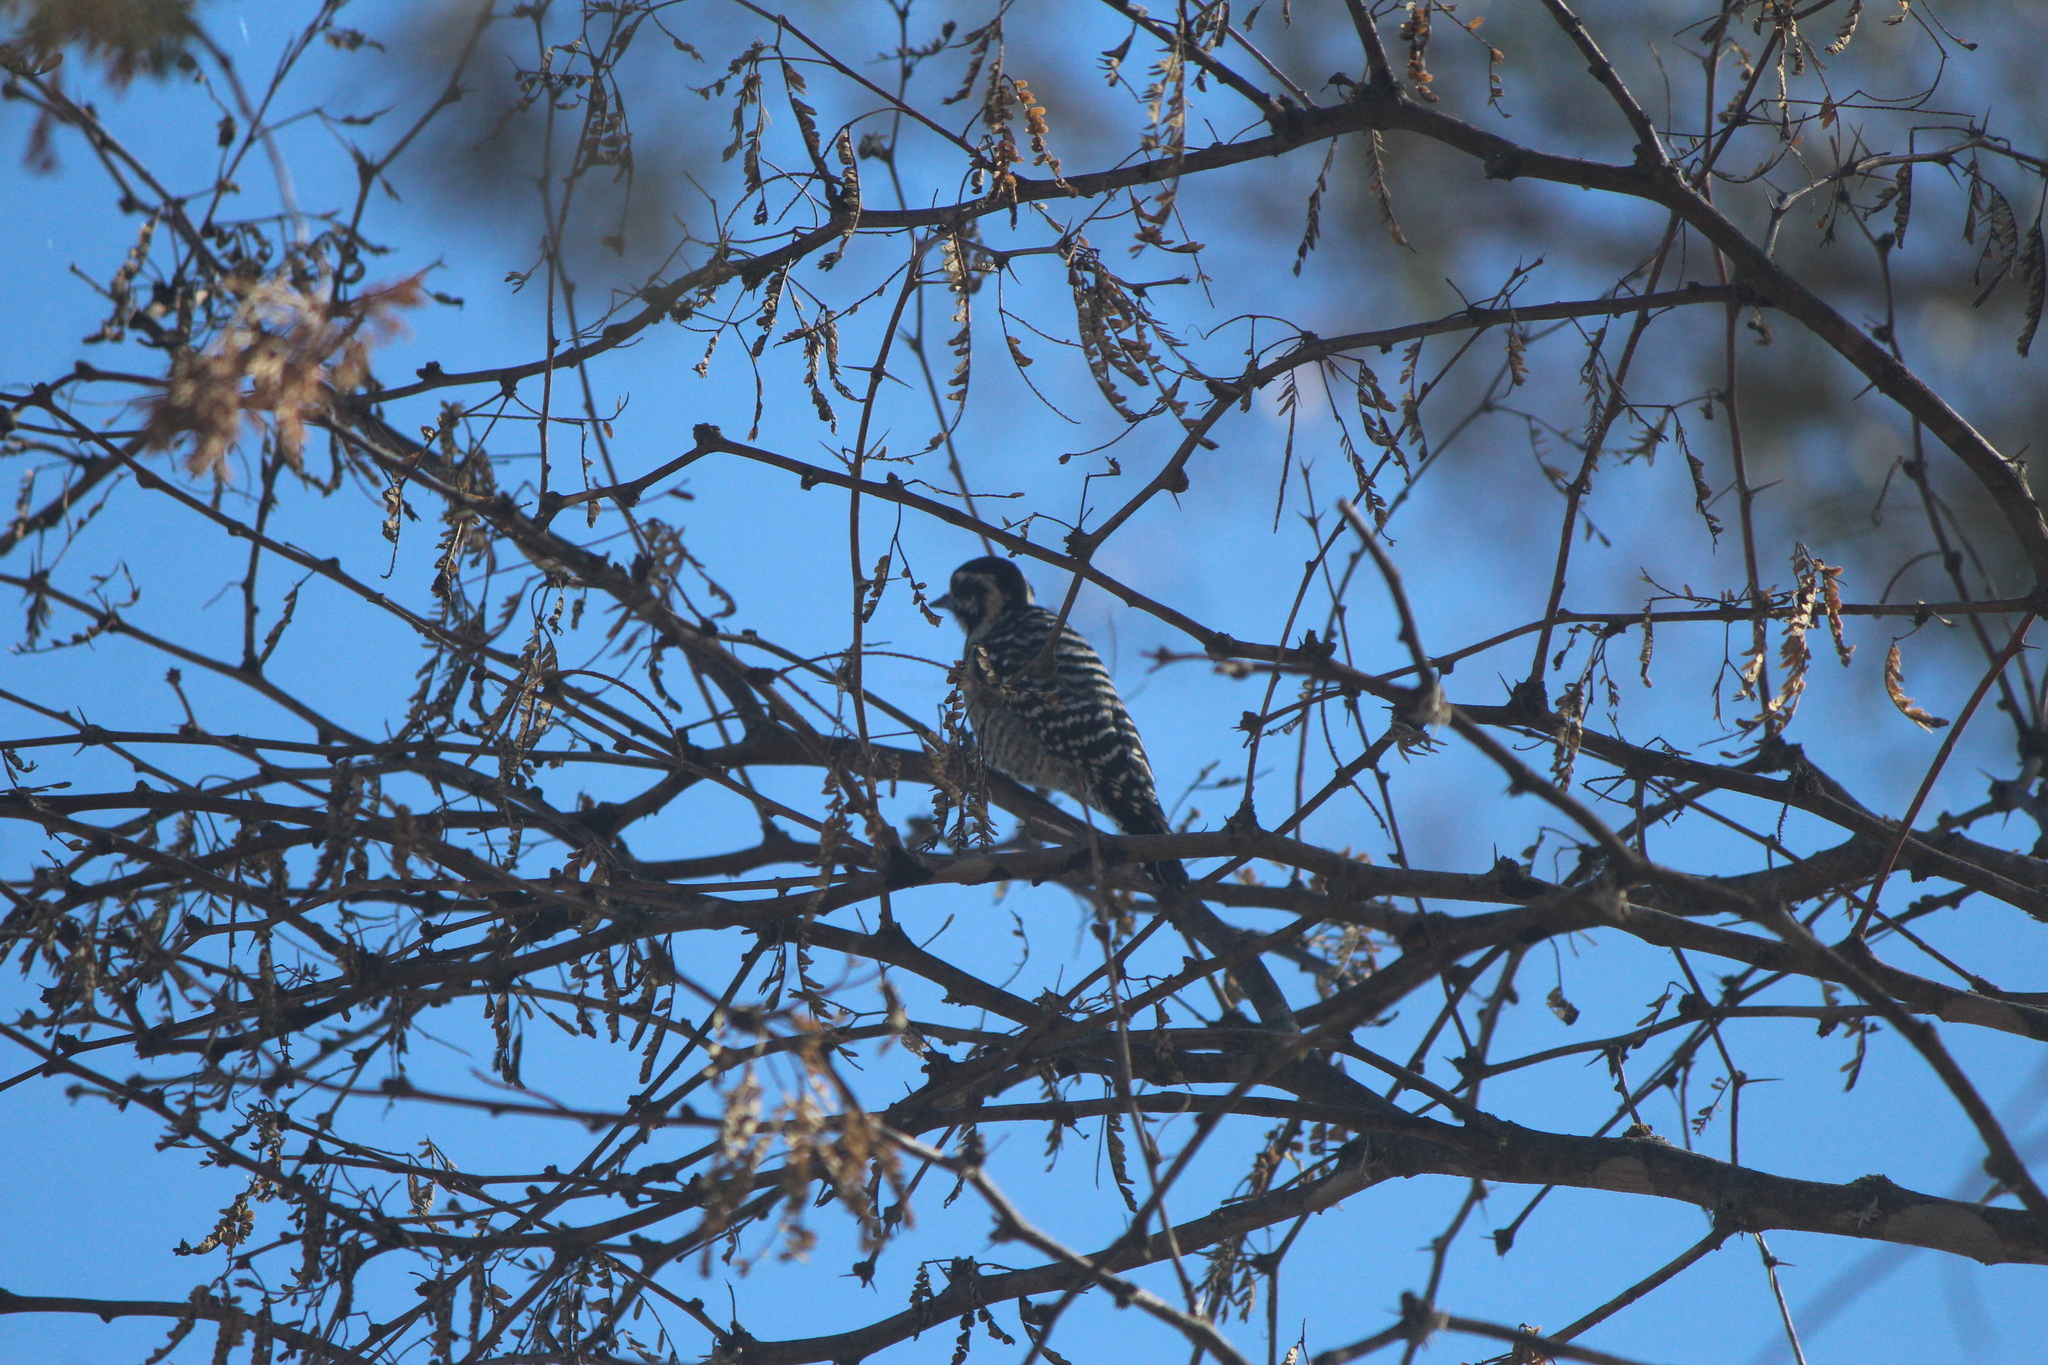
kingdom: Animalia
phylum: Chordata
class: Aves
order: Piciformes
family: Picidae
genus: Dryobates
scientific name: Dryobates scalaris
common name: Ladder-backed woodpecker
